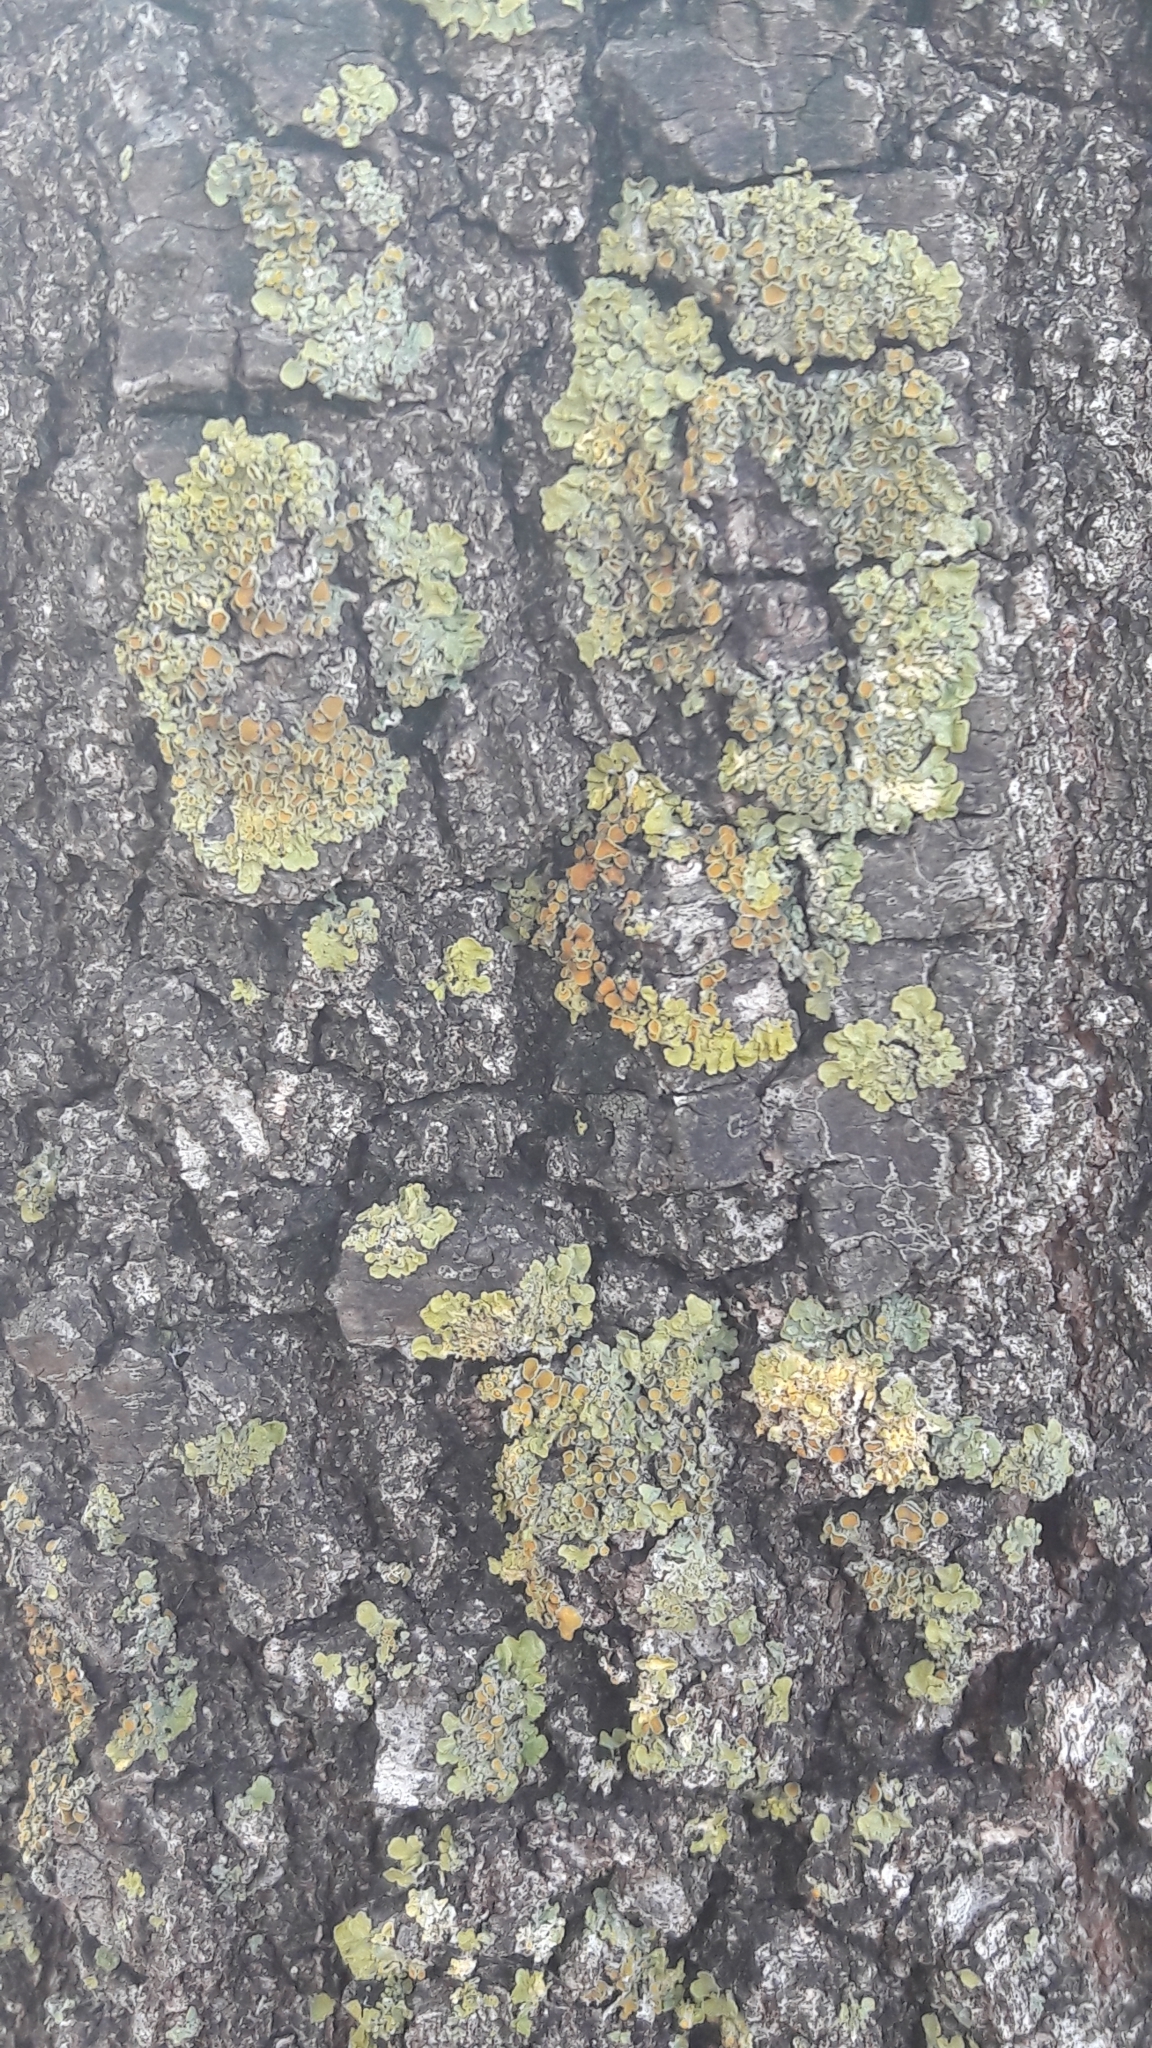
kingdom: Fungi
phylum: Ascomycota
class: Lecanoromycetes
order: Teloschistales
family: Teloschistaceae
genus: Xanthoria
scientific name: Xanthoria parietina
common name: Common orange lichen
